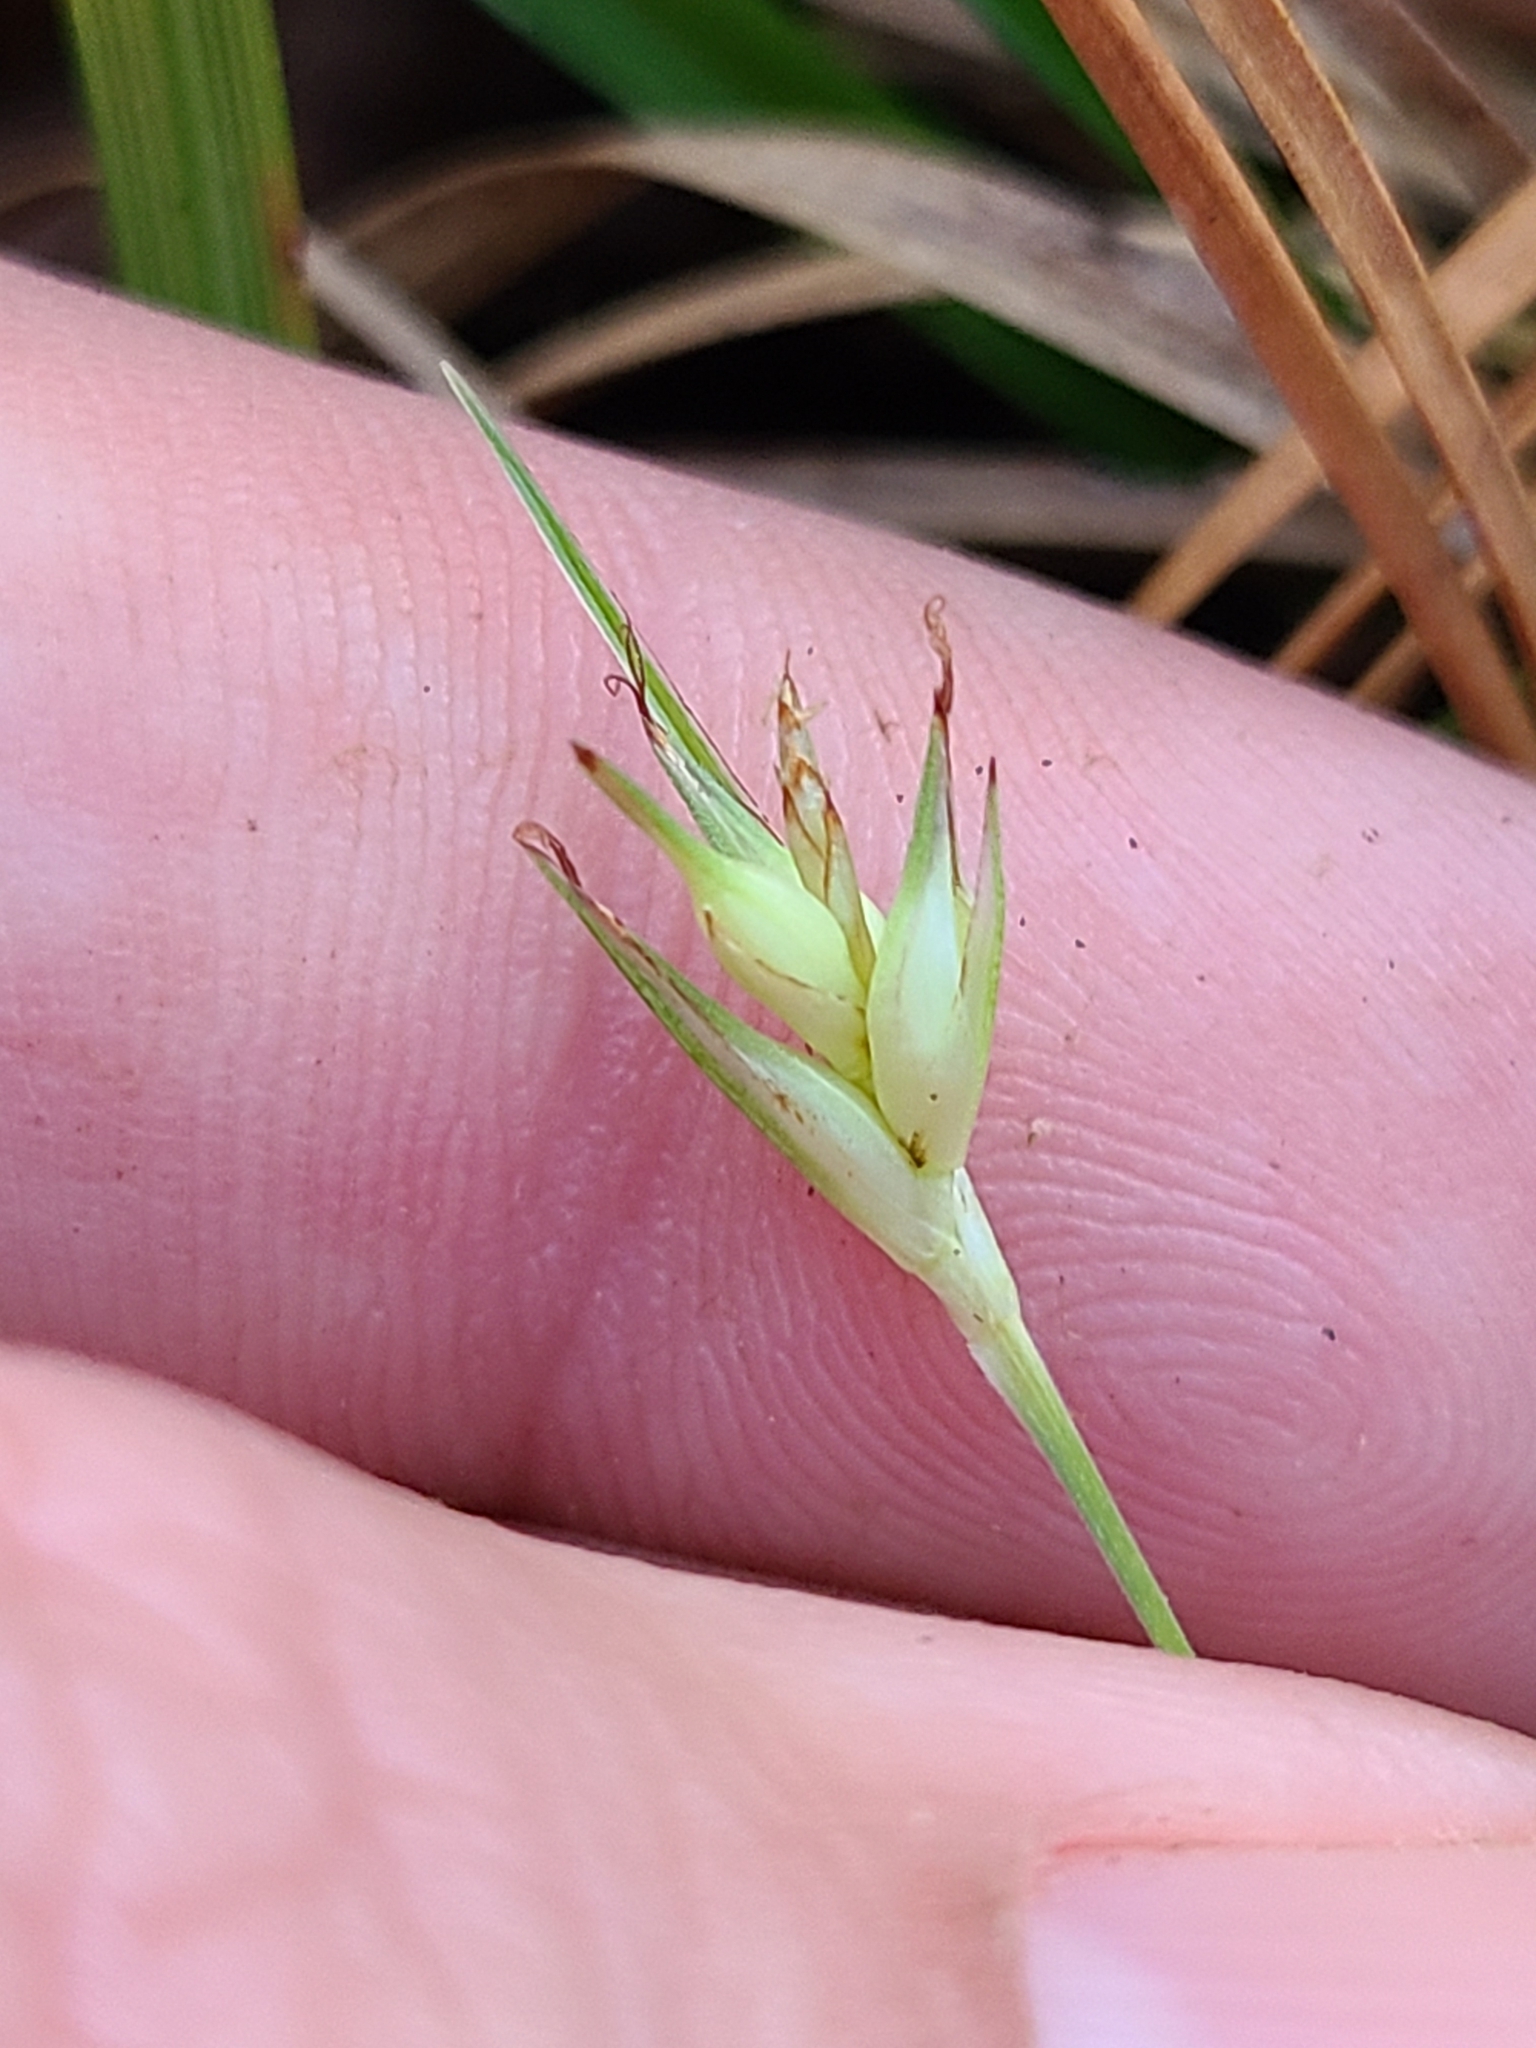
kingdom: Plantae
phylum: Tracheophyta
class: Liliopsida
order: Poales
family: Cyperaceae
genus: Carex
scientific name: Carex basiantha
